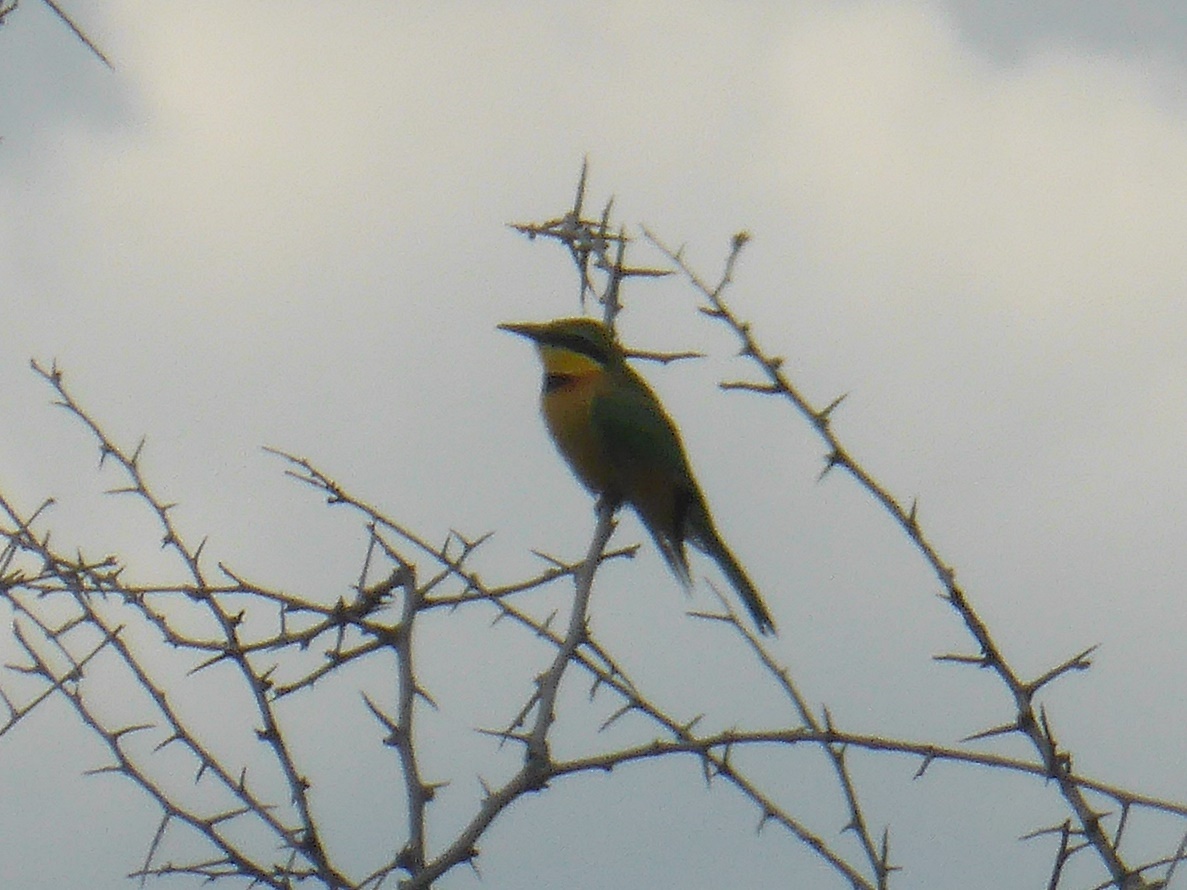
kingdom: Animalia
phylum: Chordata
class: Aves
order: Coraciiformes
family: Meropidae
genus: Merops
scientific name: Merops pusillus
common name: Little bee-eater
